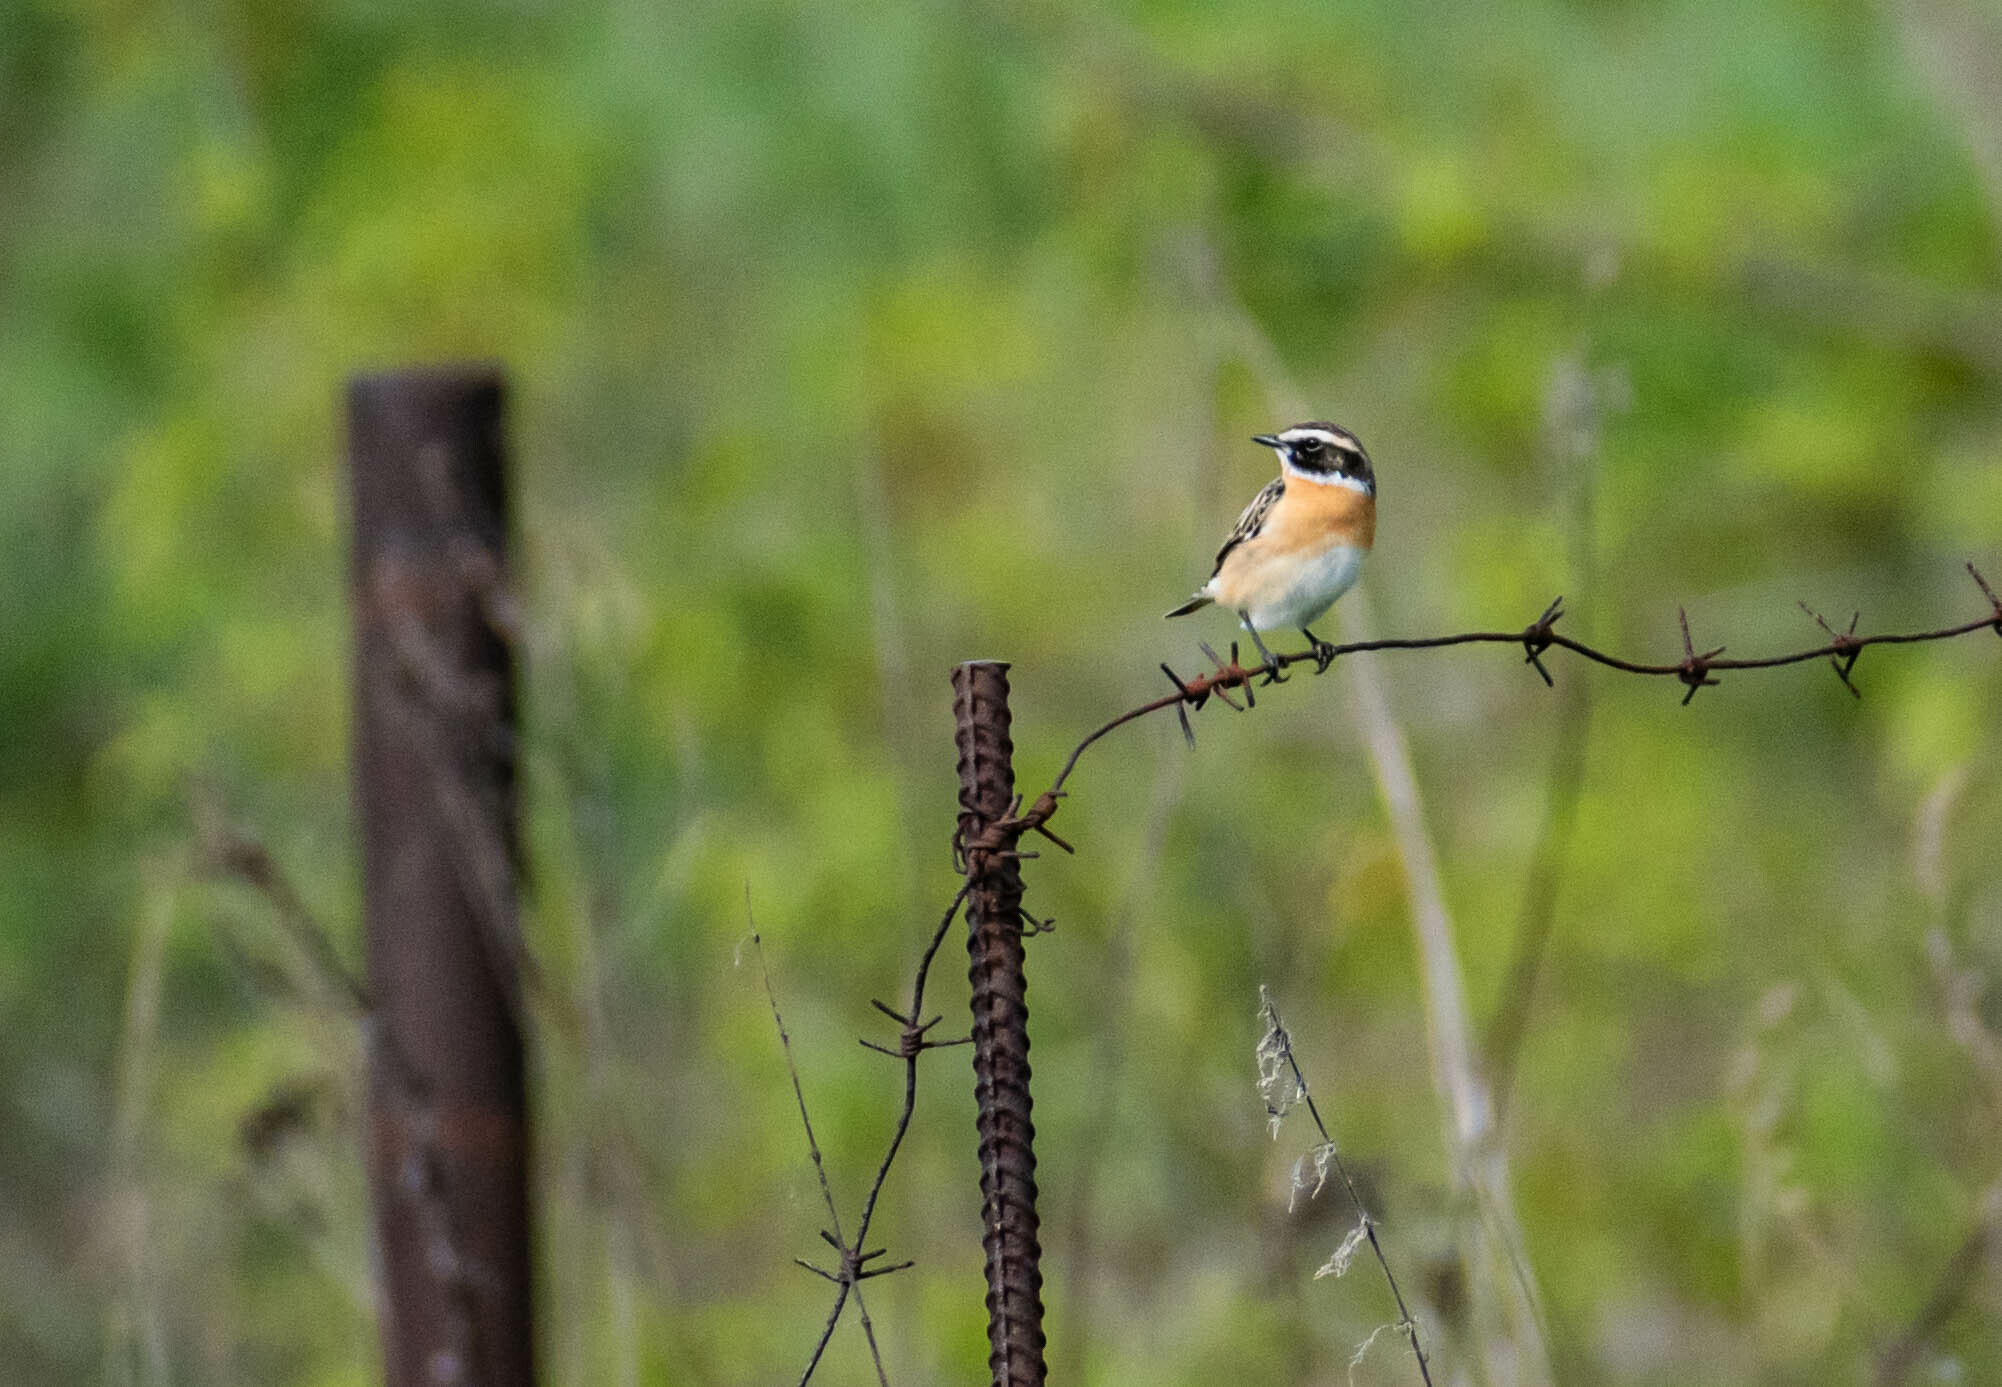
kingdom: Animalia
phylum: Chordata
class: Aves
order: Passeriformes
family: Muscicapidae
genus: Saxicola
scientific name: Saxicola rubetra
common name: Whinchat
